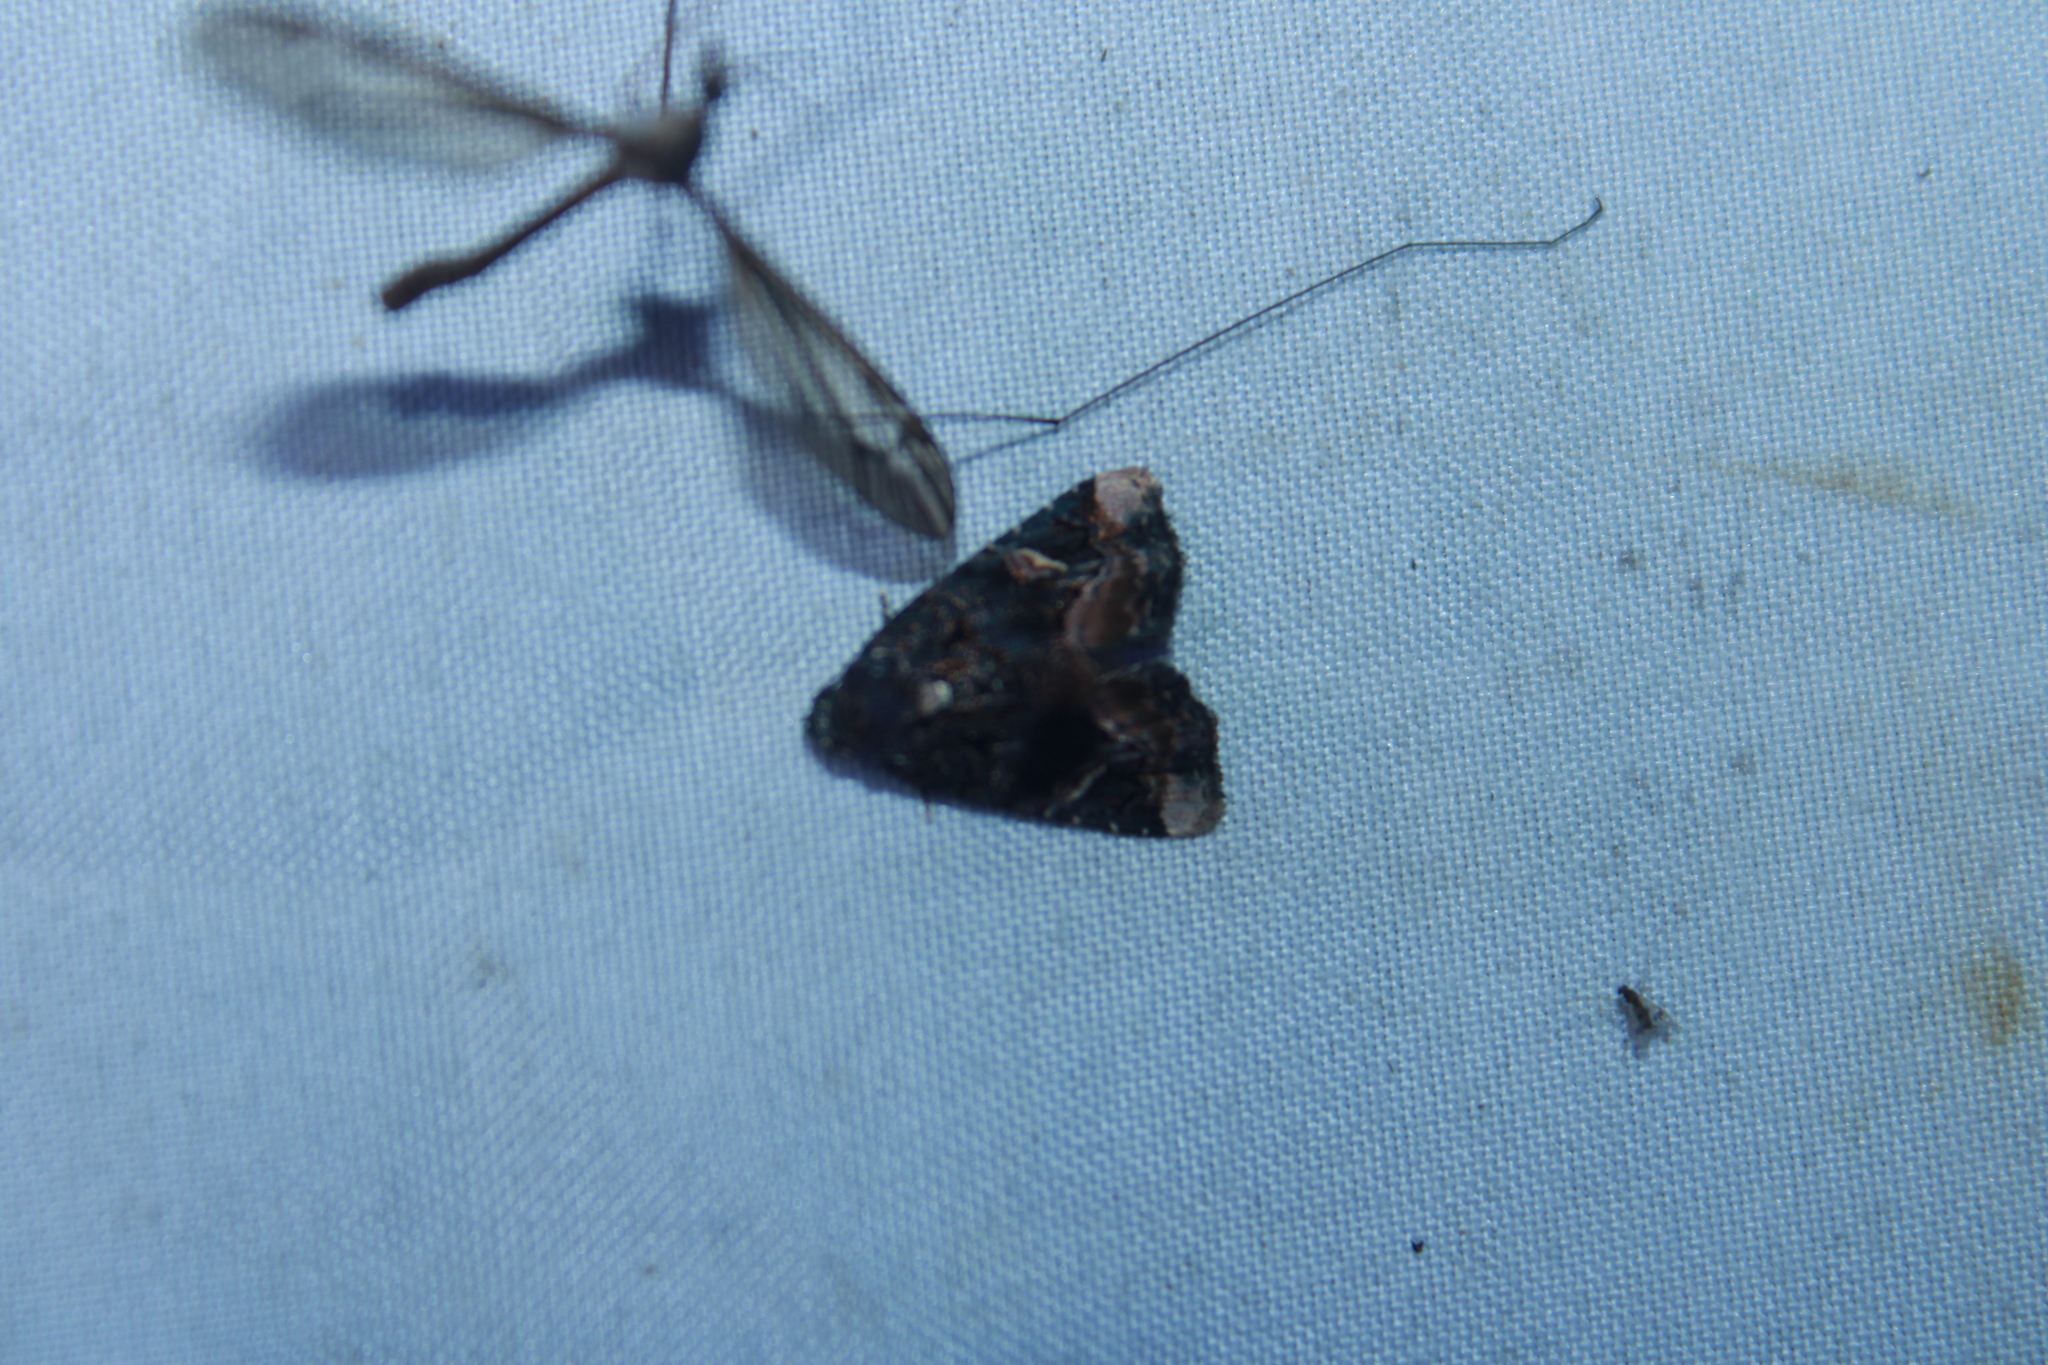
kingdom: Animalia
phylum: Arthropoda
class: Insecta
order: Lepidoptera
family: Noctuidae
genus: Homophoberia
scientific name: Homophoberia apicosa
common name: Black wedge-spot
